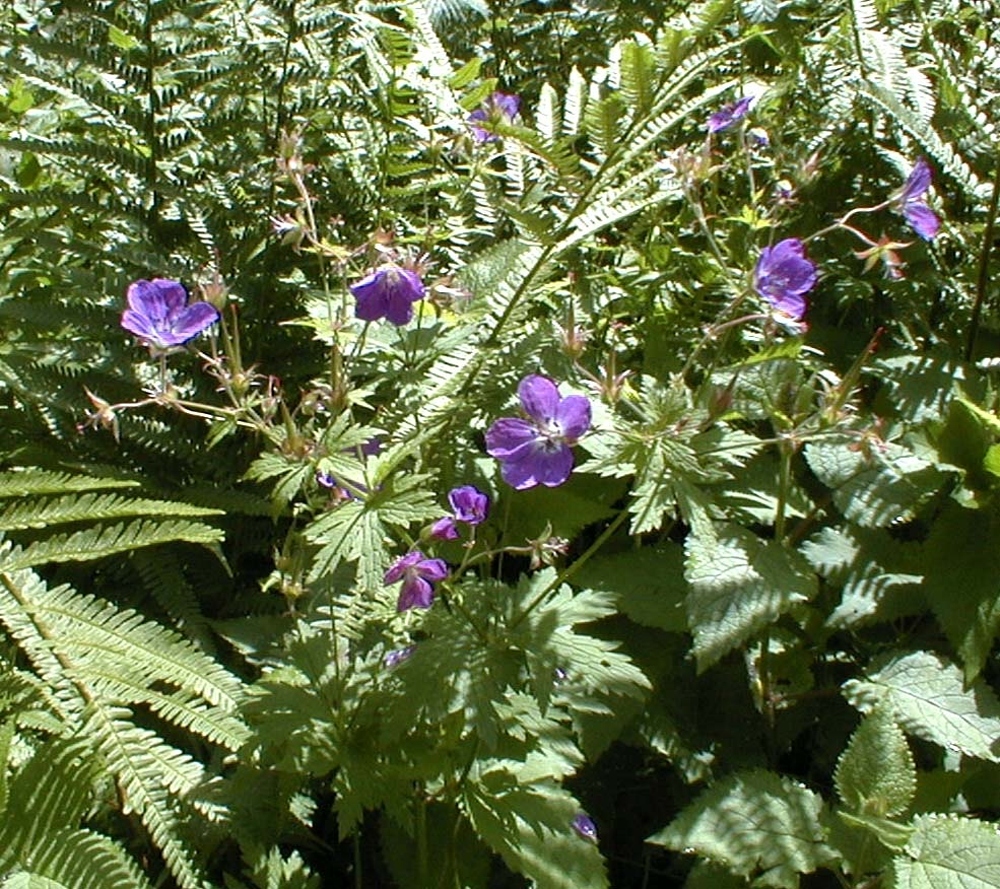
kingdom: Plantae
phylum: Tracheophyta
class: Magnoliopsida
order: Geraniales
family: Geraniaceae
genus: Geranium
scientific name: Geranium sylvaticum
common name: Wood crane's-bill
